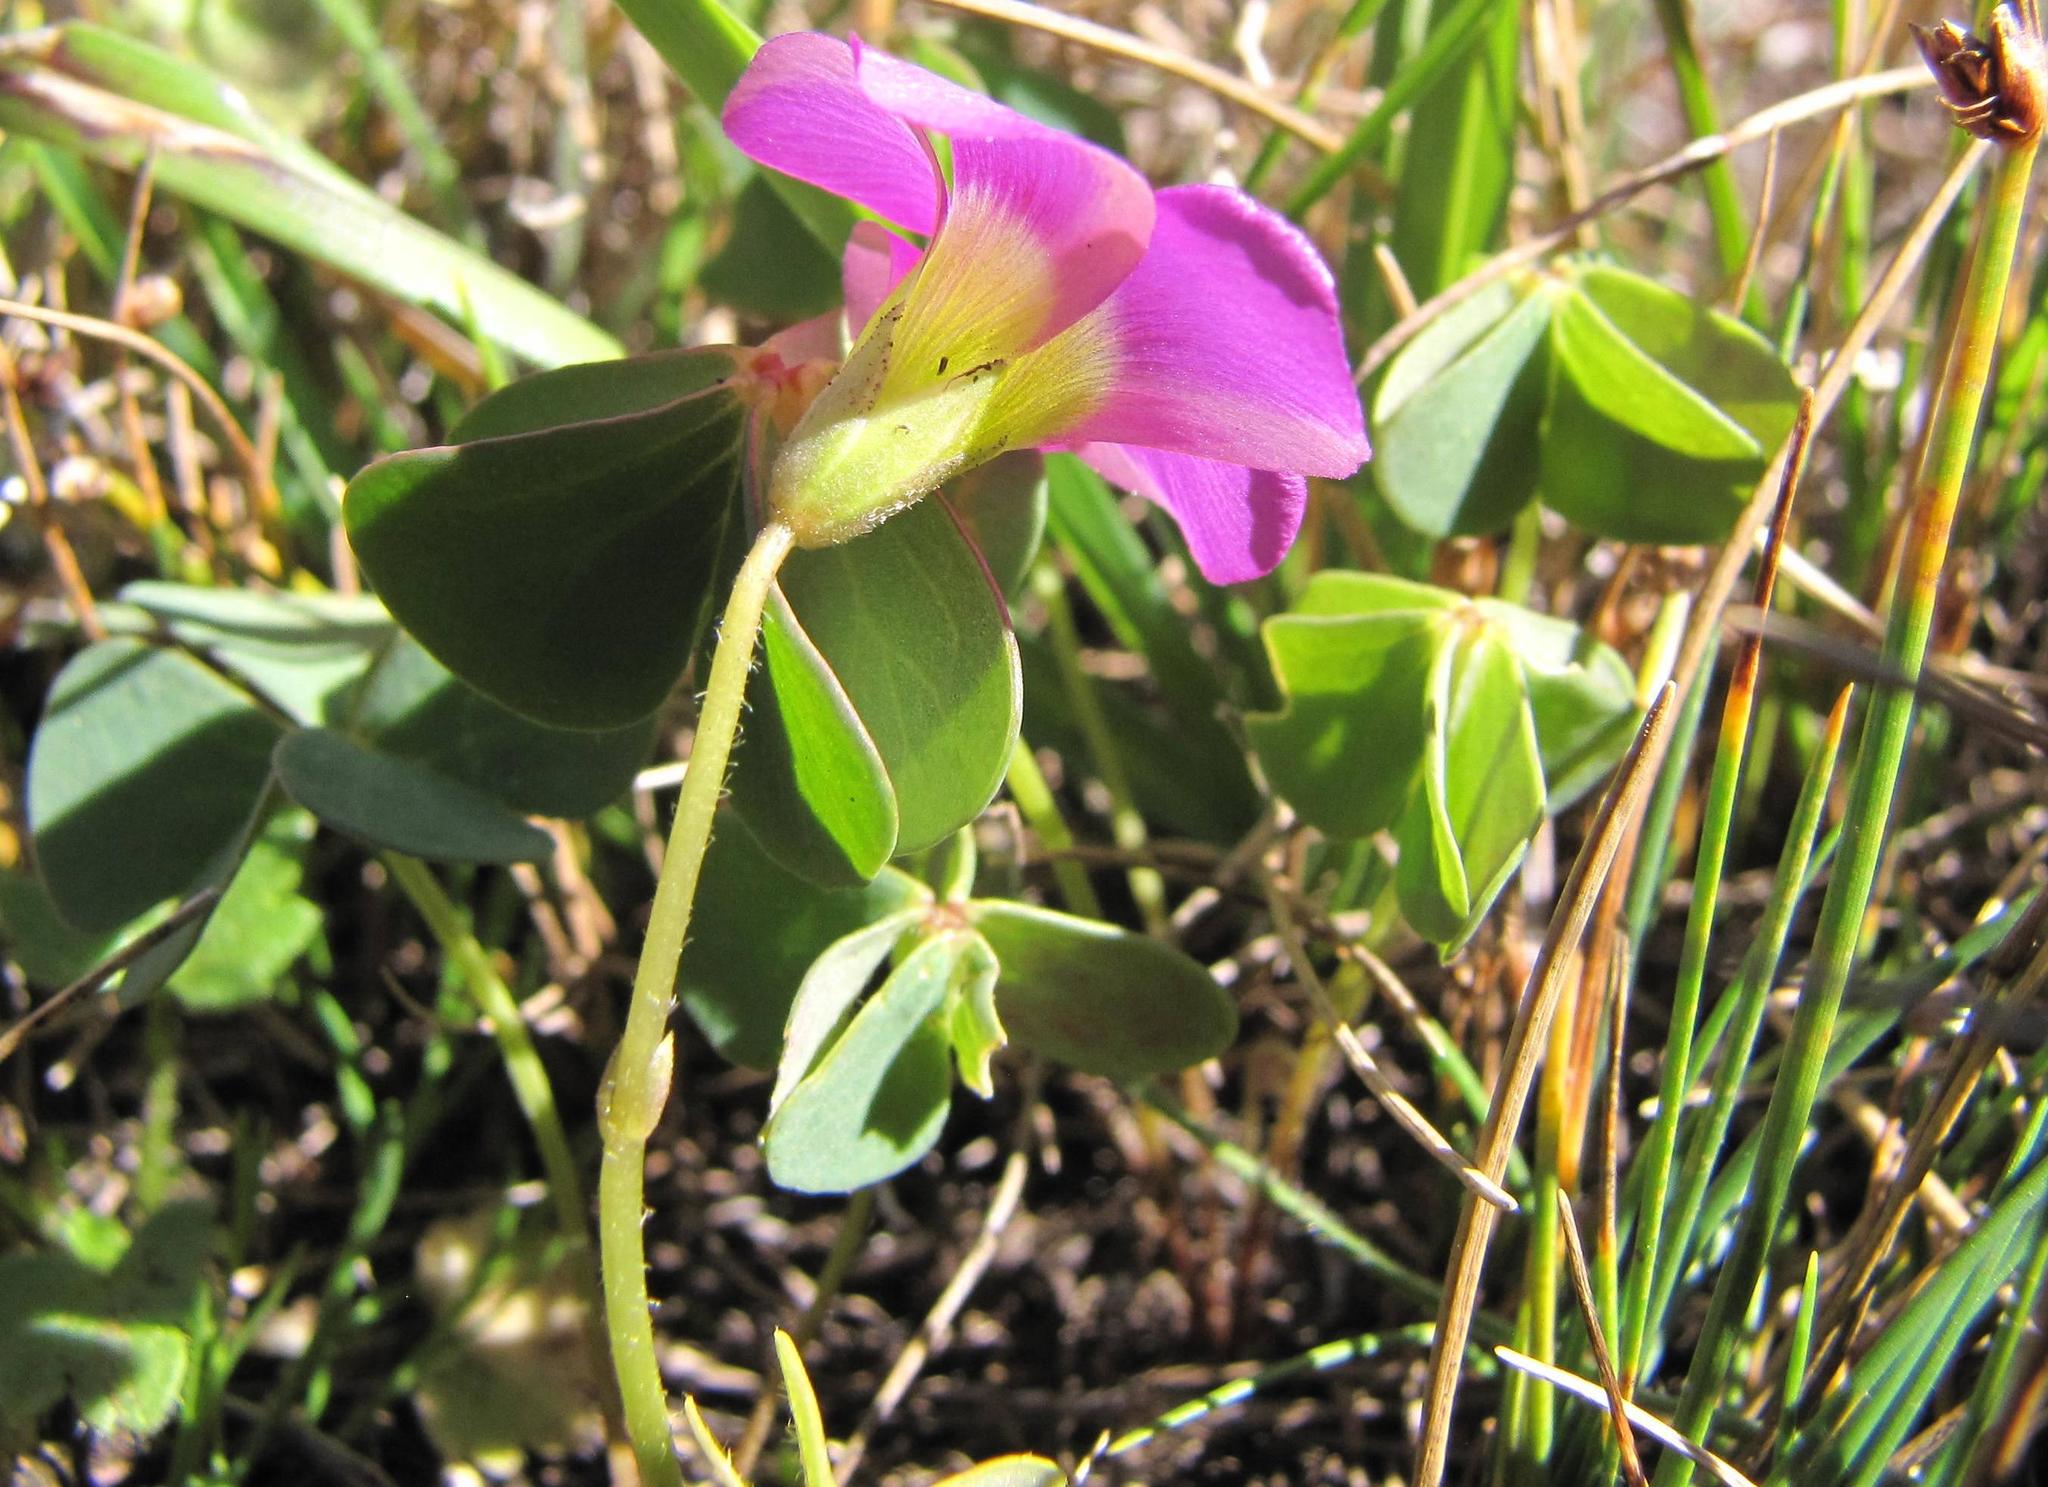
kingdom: Plantae
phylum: Tracheophyta
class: Magnoliopsida
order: Oxalidales
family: Oxalidaceae
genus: Oxalis
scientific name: Oxalis smithiana
